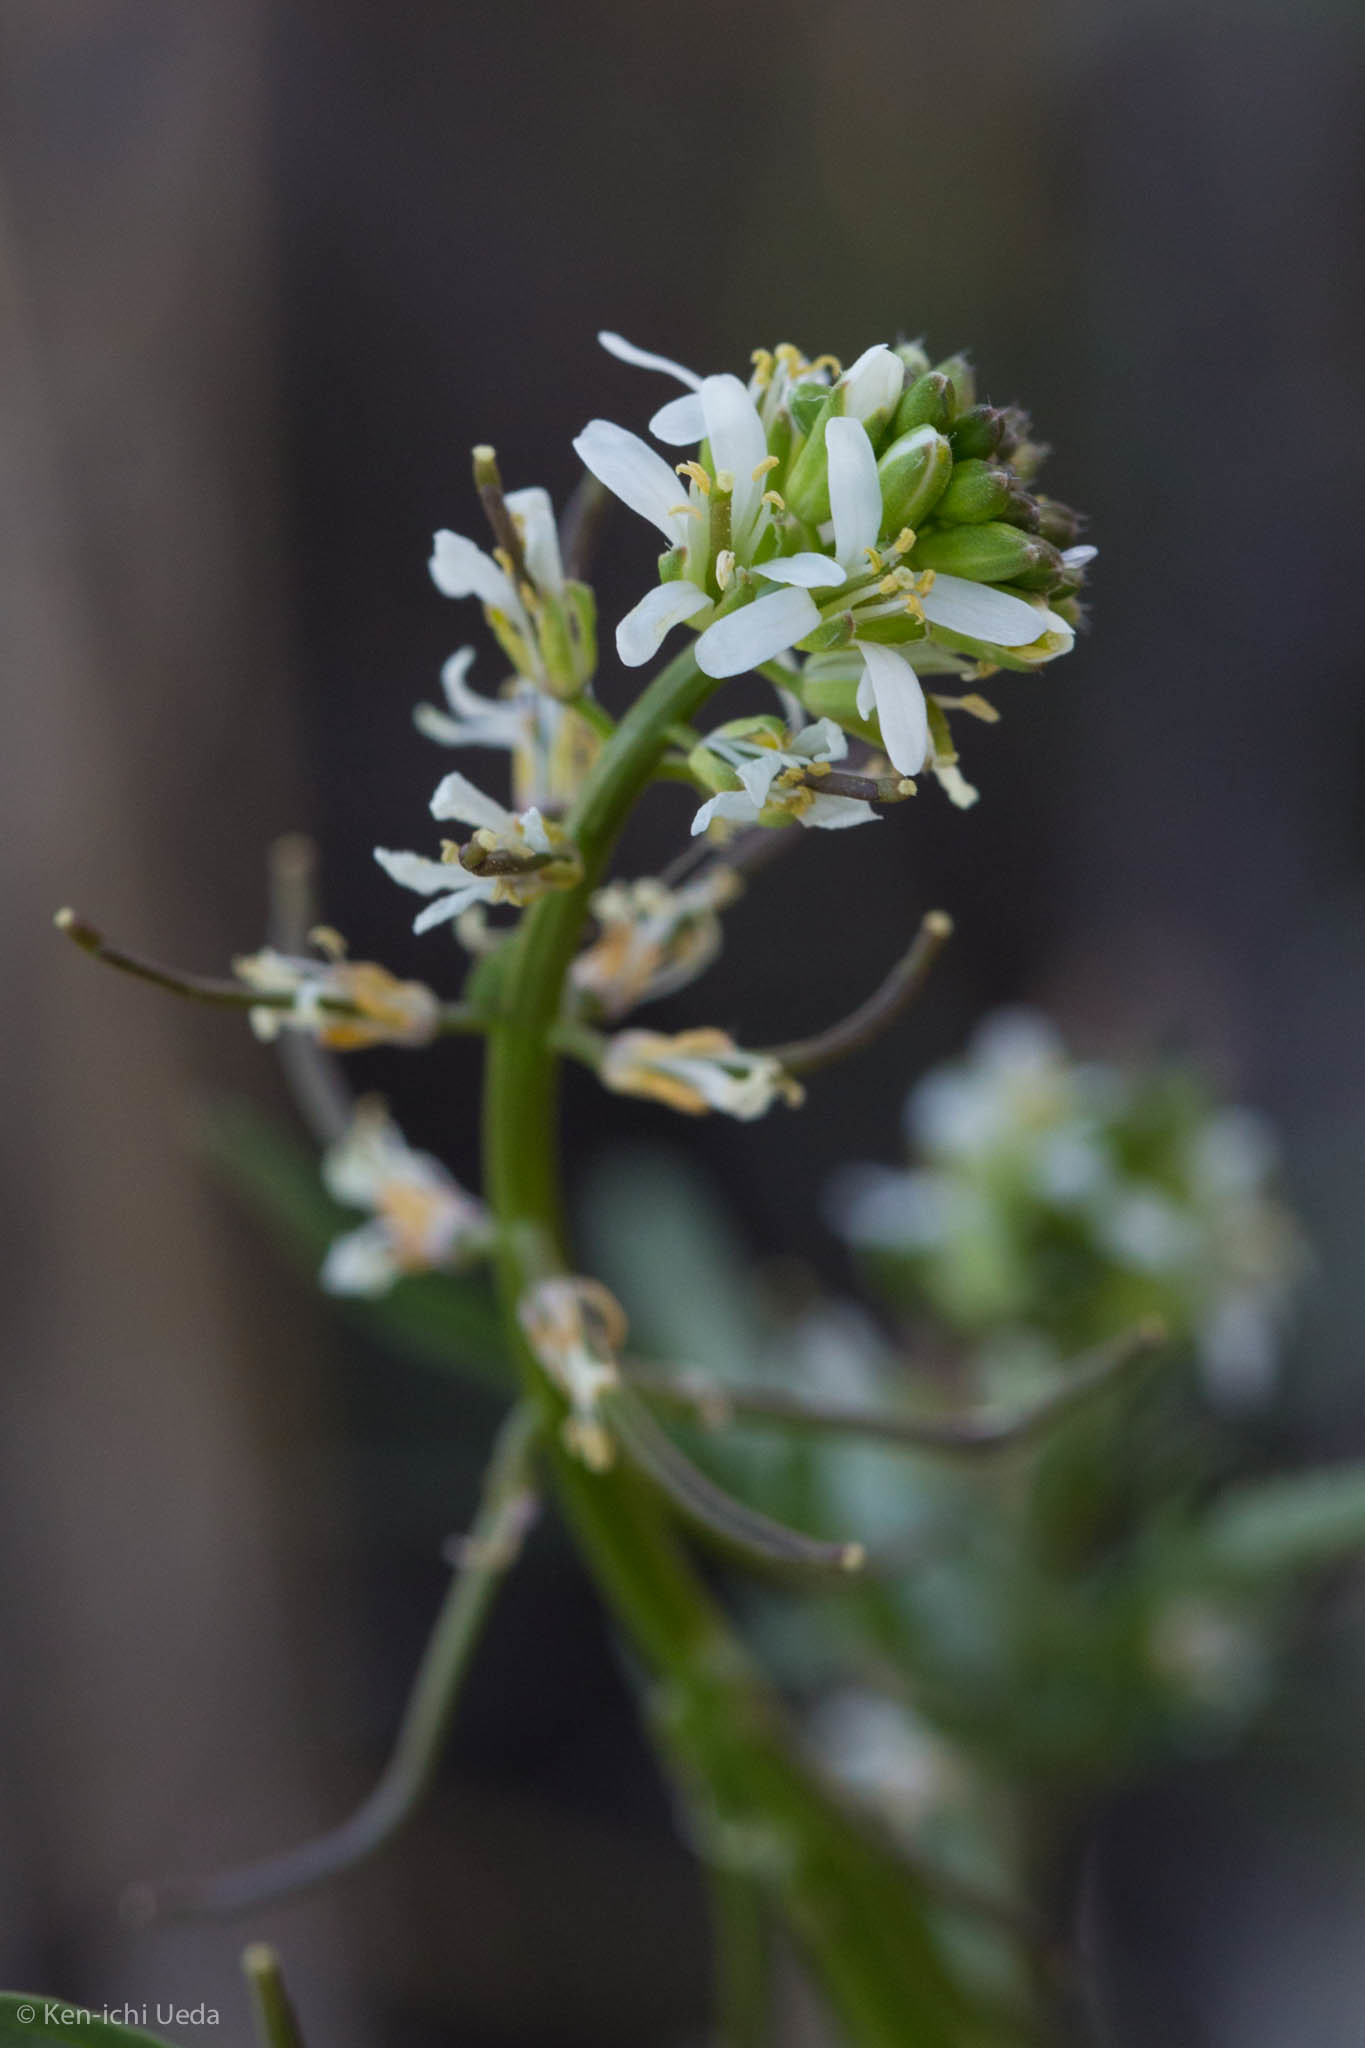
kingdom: Plantae
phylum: Tracheophyta
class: Magnoliopsida
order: Brassicales
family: Brassicaceae
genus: Streptanthus
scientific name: Streptanthus lasiophyllus
